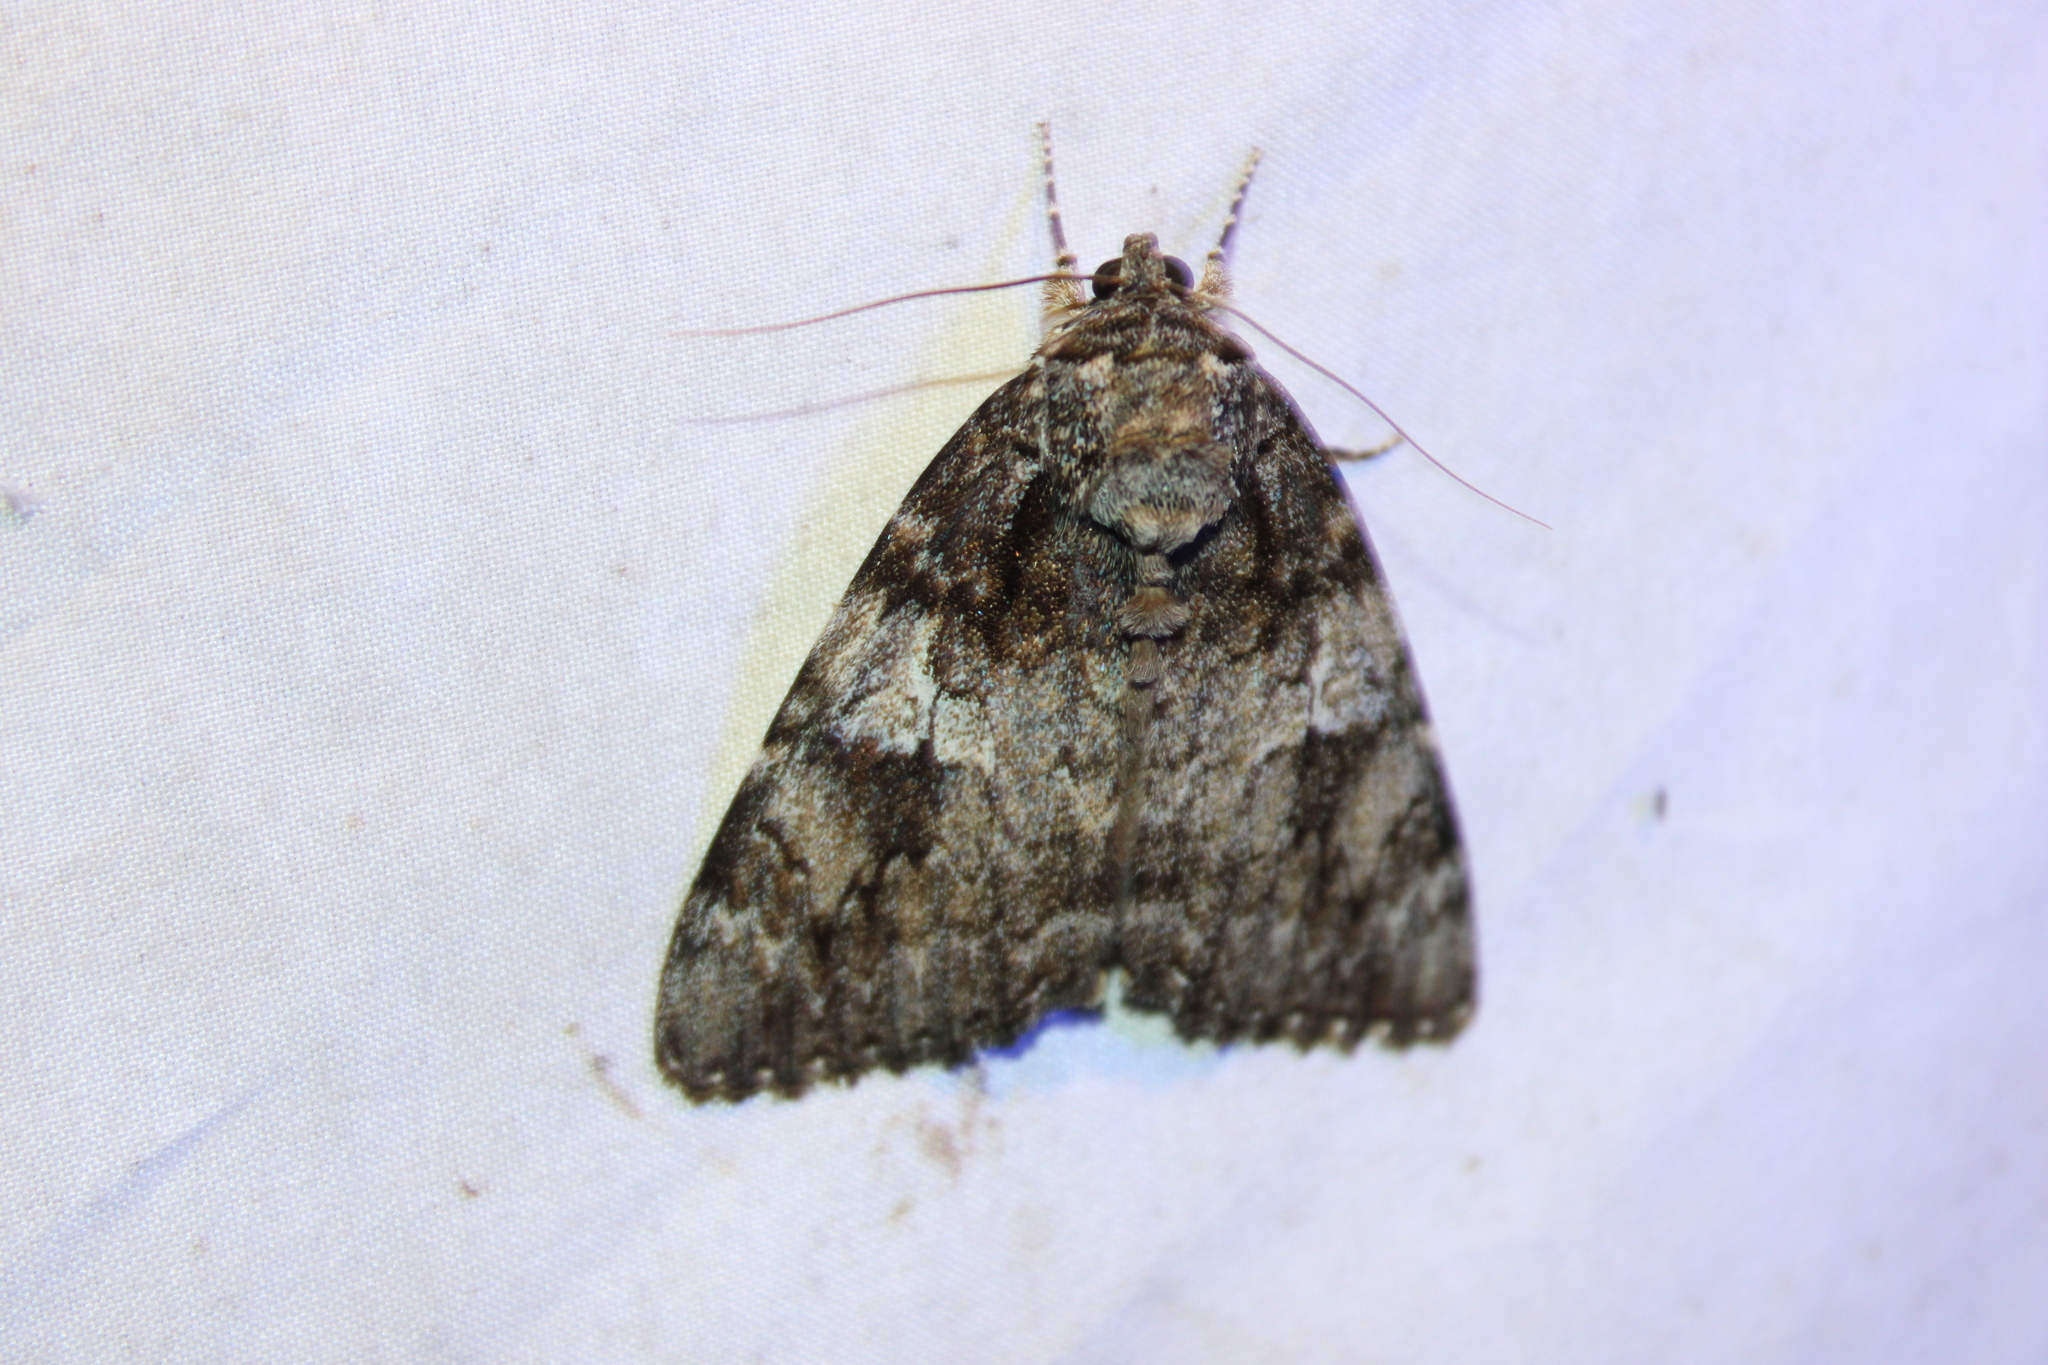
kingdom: Animalia
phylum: Arthropoda
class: Insecta
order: Lepidoptera
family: Erebidae
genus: Catocala
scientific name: Catocala ilia
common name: Ilia underwing
